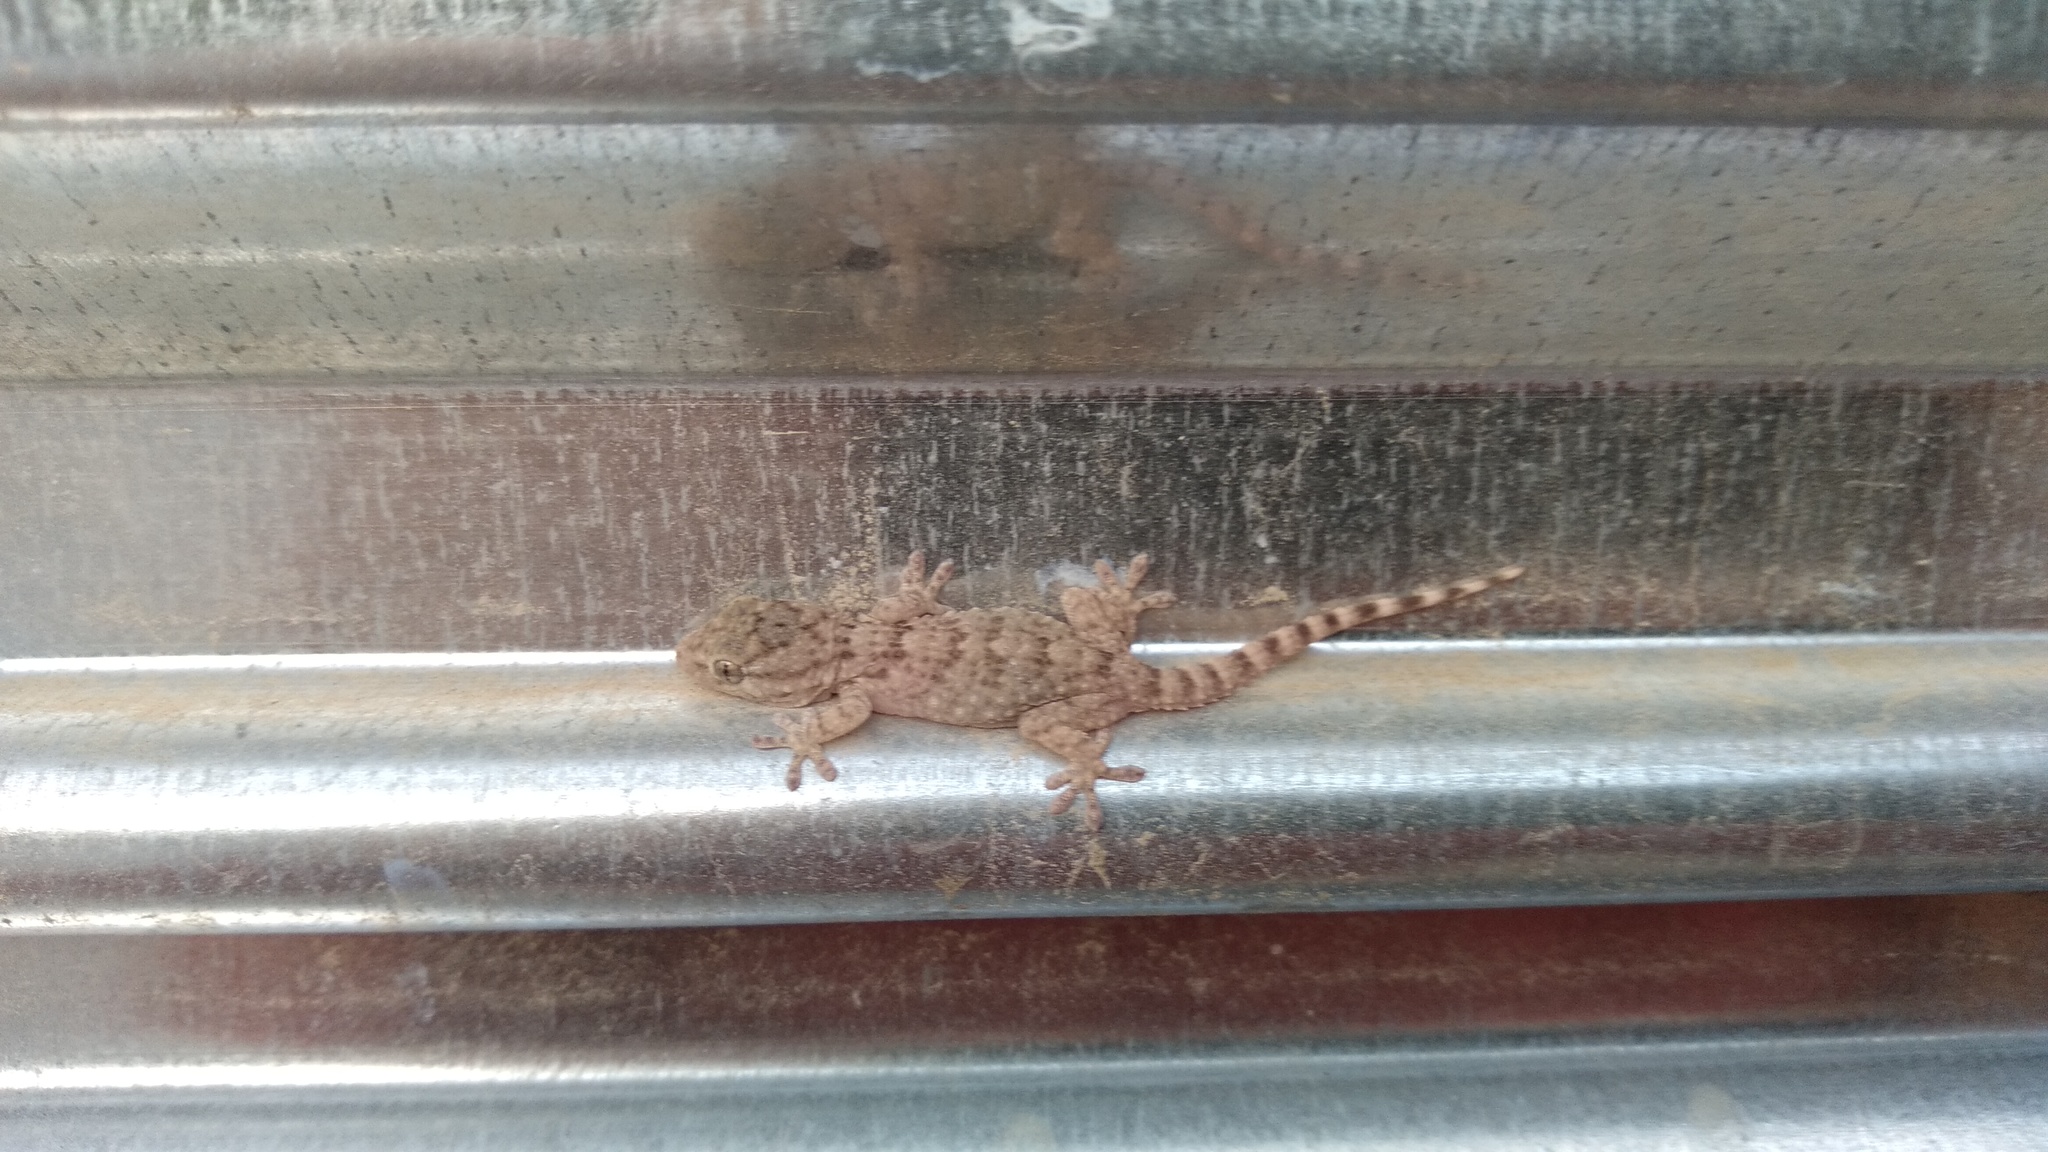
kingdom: Animalia
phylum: Chordata
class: Squamata
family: Phyllodactylidae
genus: Tarentola
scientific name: Tarentola mauritanica
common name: Moorish gecko
